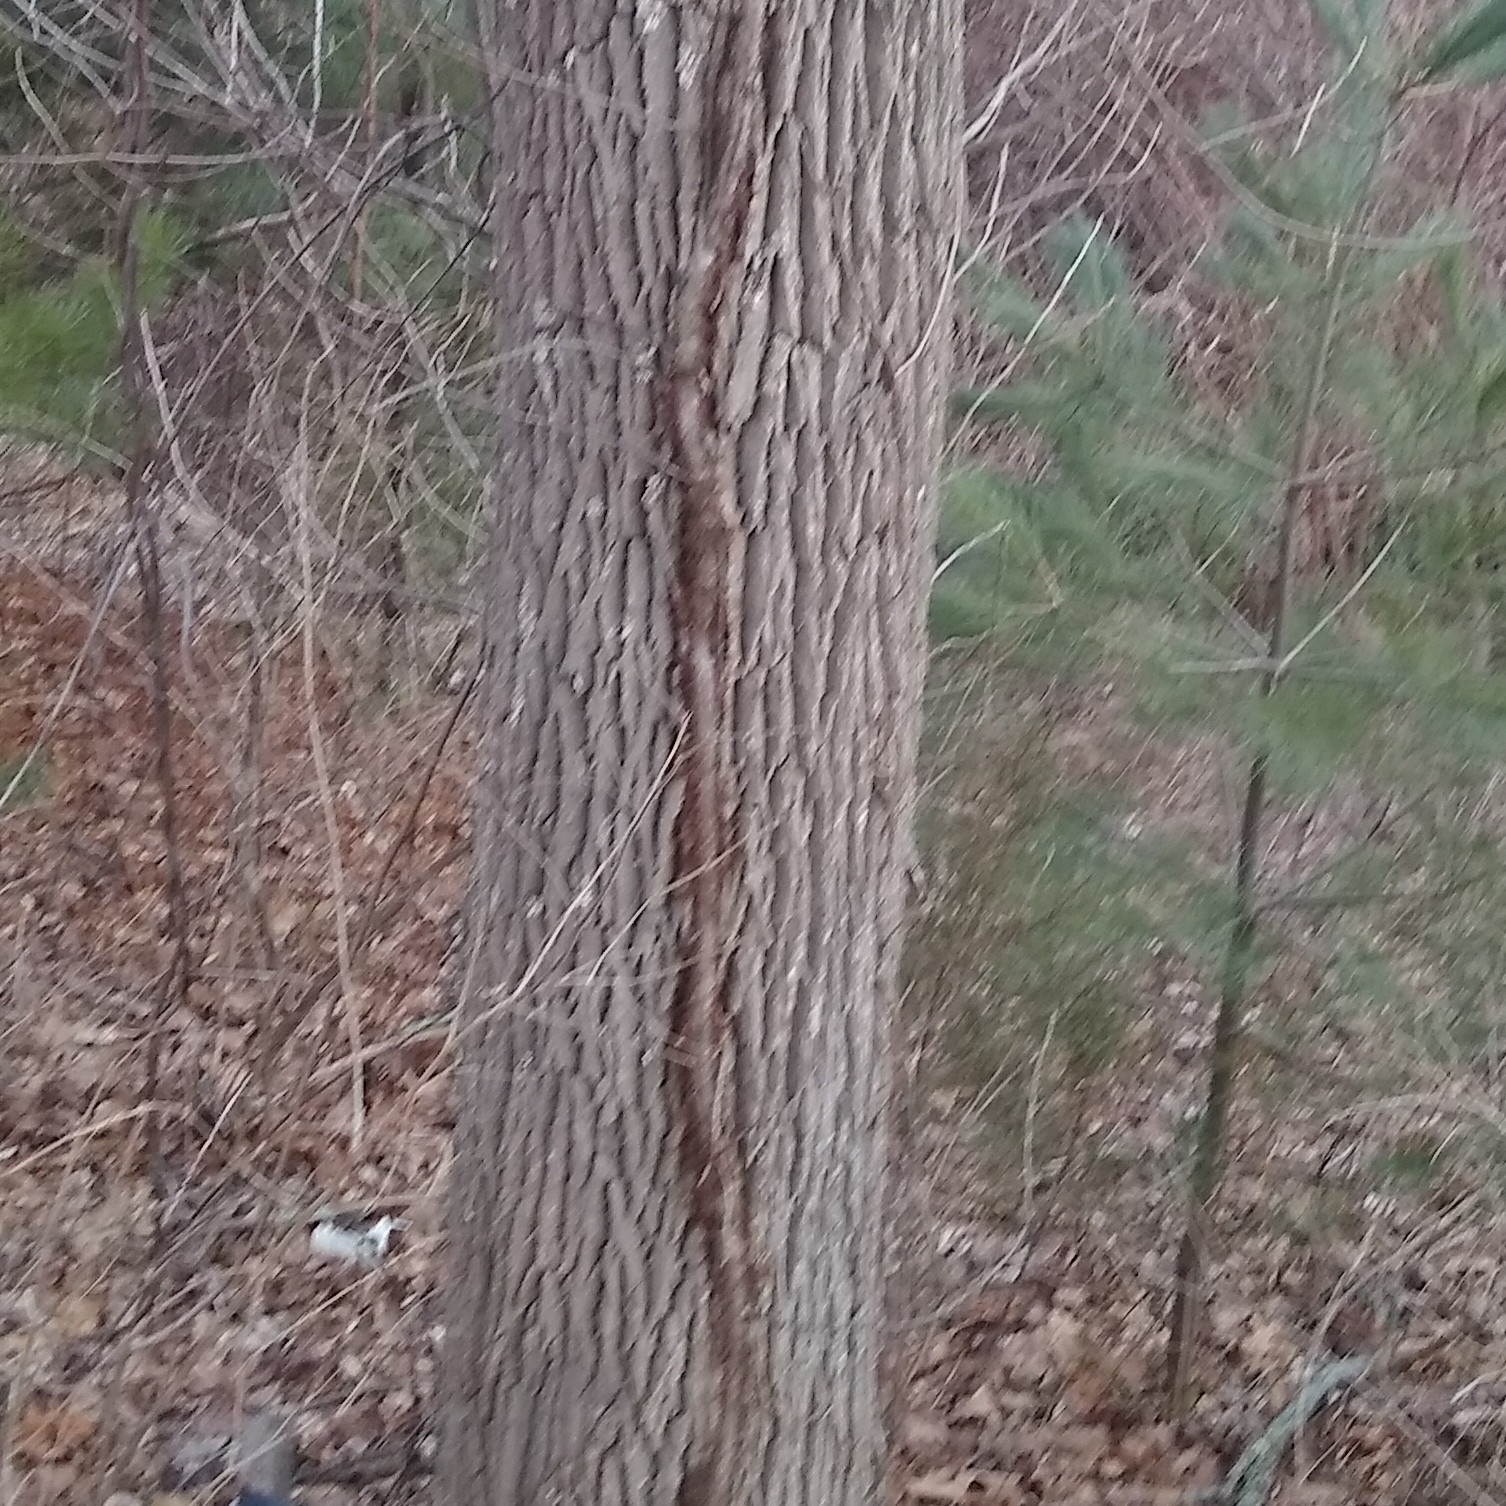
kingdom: Plantae
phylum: Tracheophyta
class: Magnoliopsida
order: Sapindales
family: Anacardiaceae
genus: Toxicodendron
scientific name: Toxicodendron radicans
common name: Poison ivy
